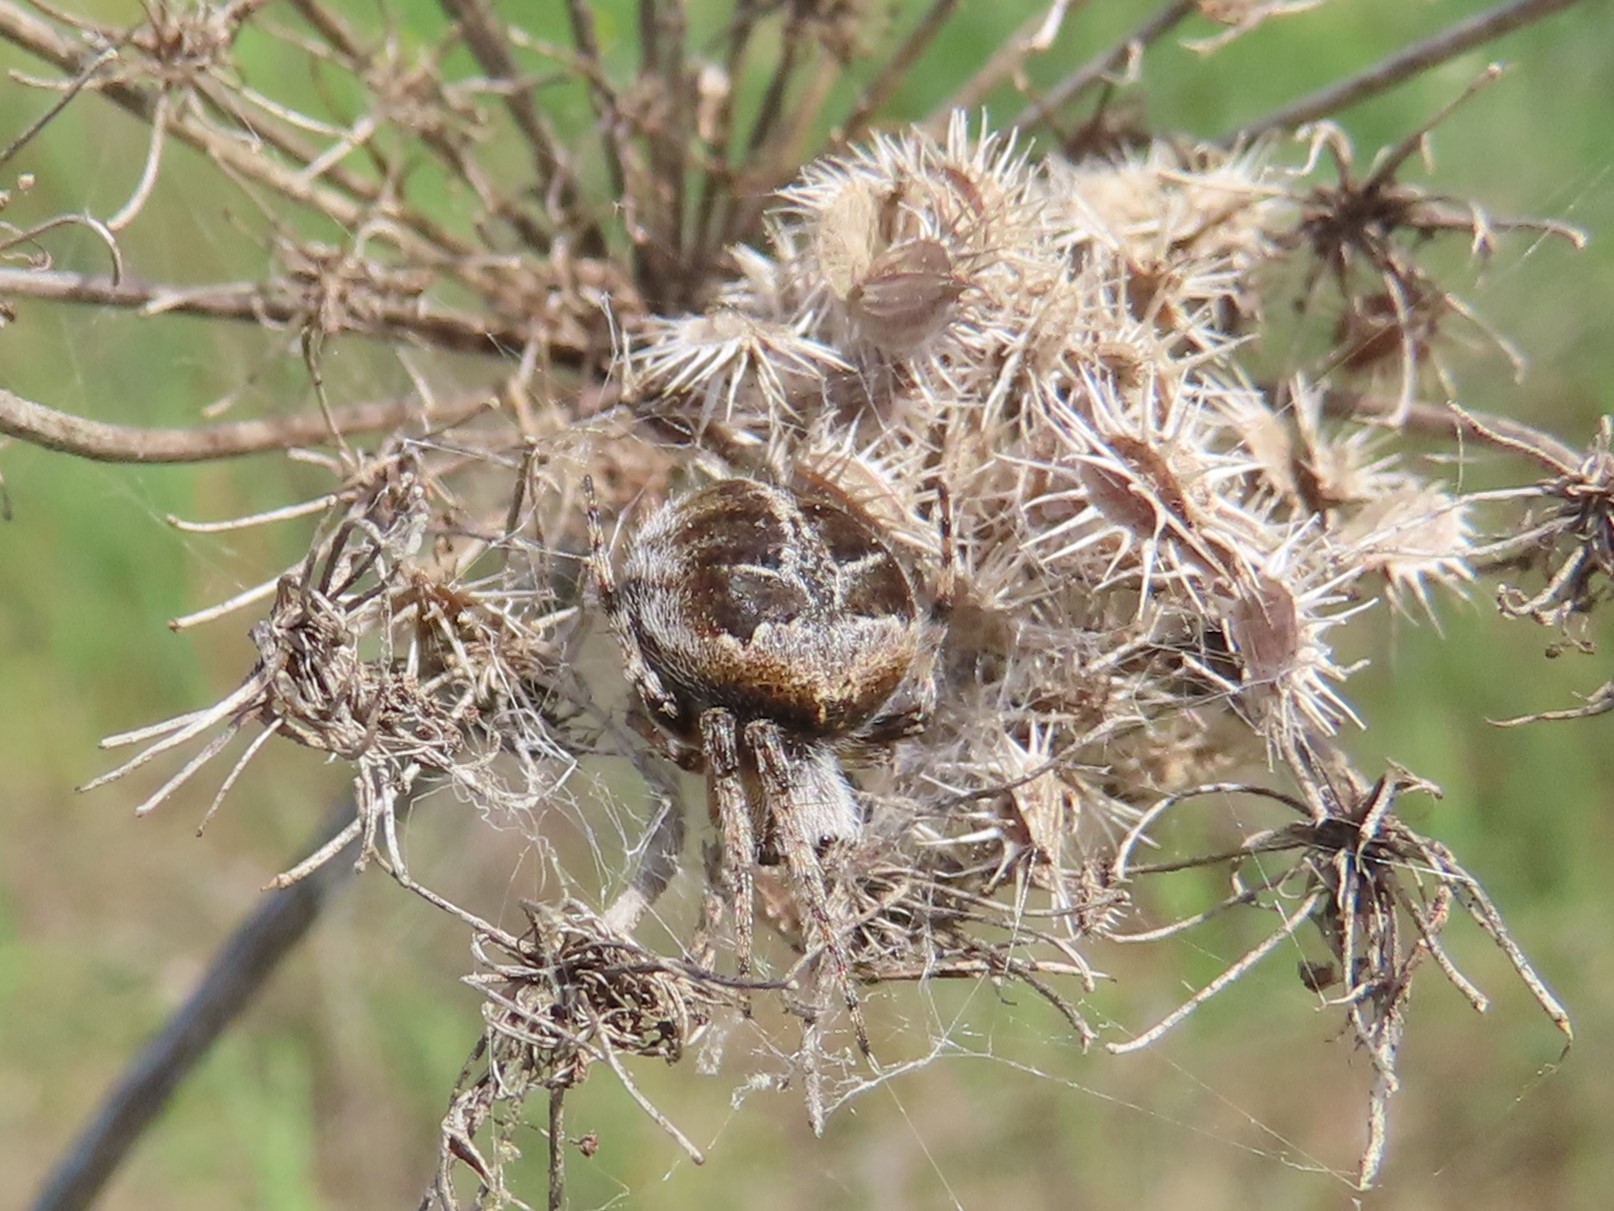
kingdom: Animalia
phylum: Arthropoda
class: Arachnida
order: Araneae
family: Araneidae
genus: Agalenatea
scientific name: Agalenatea redii
